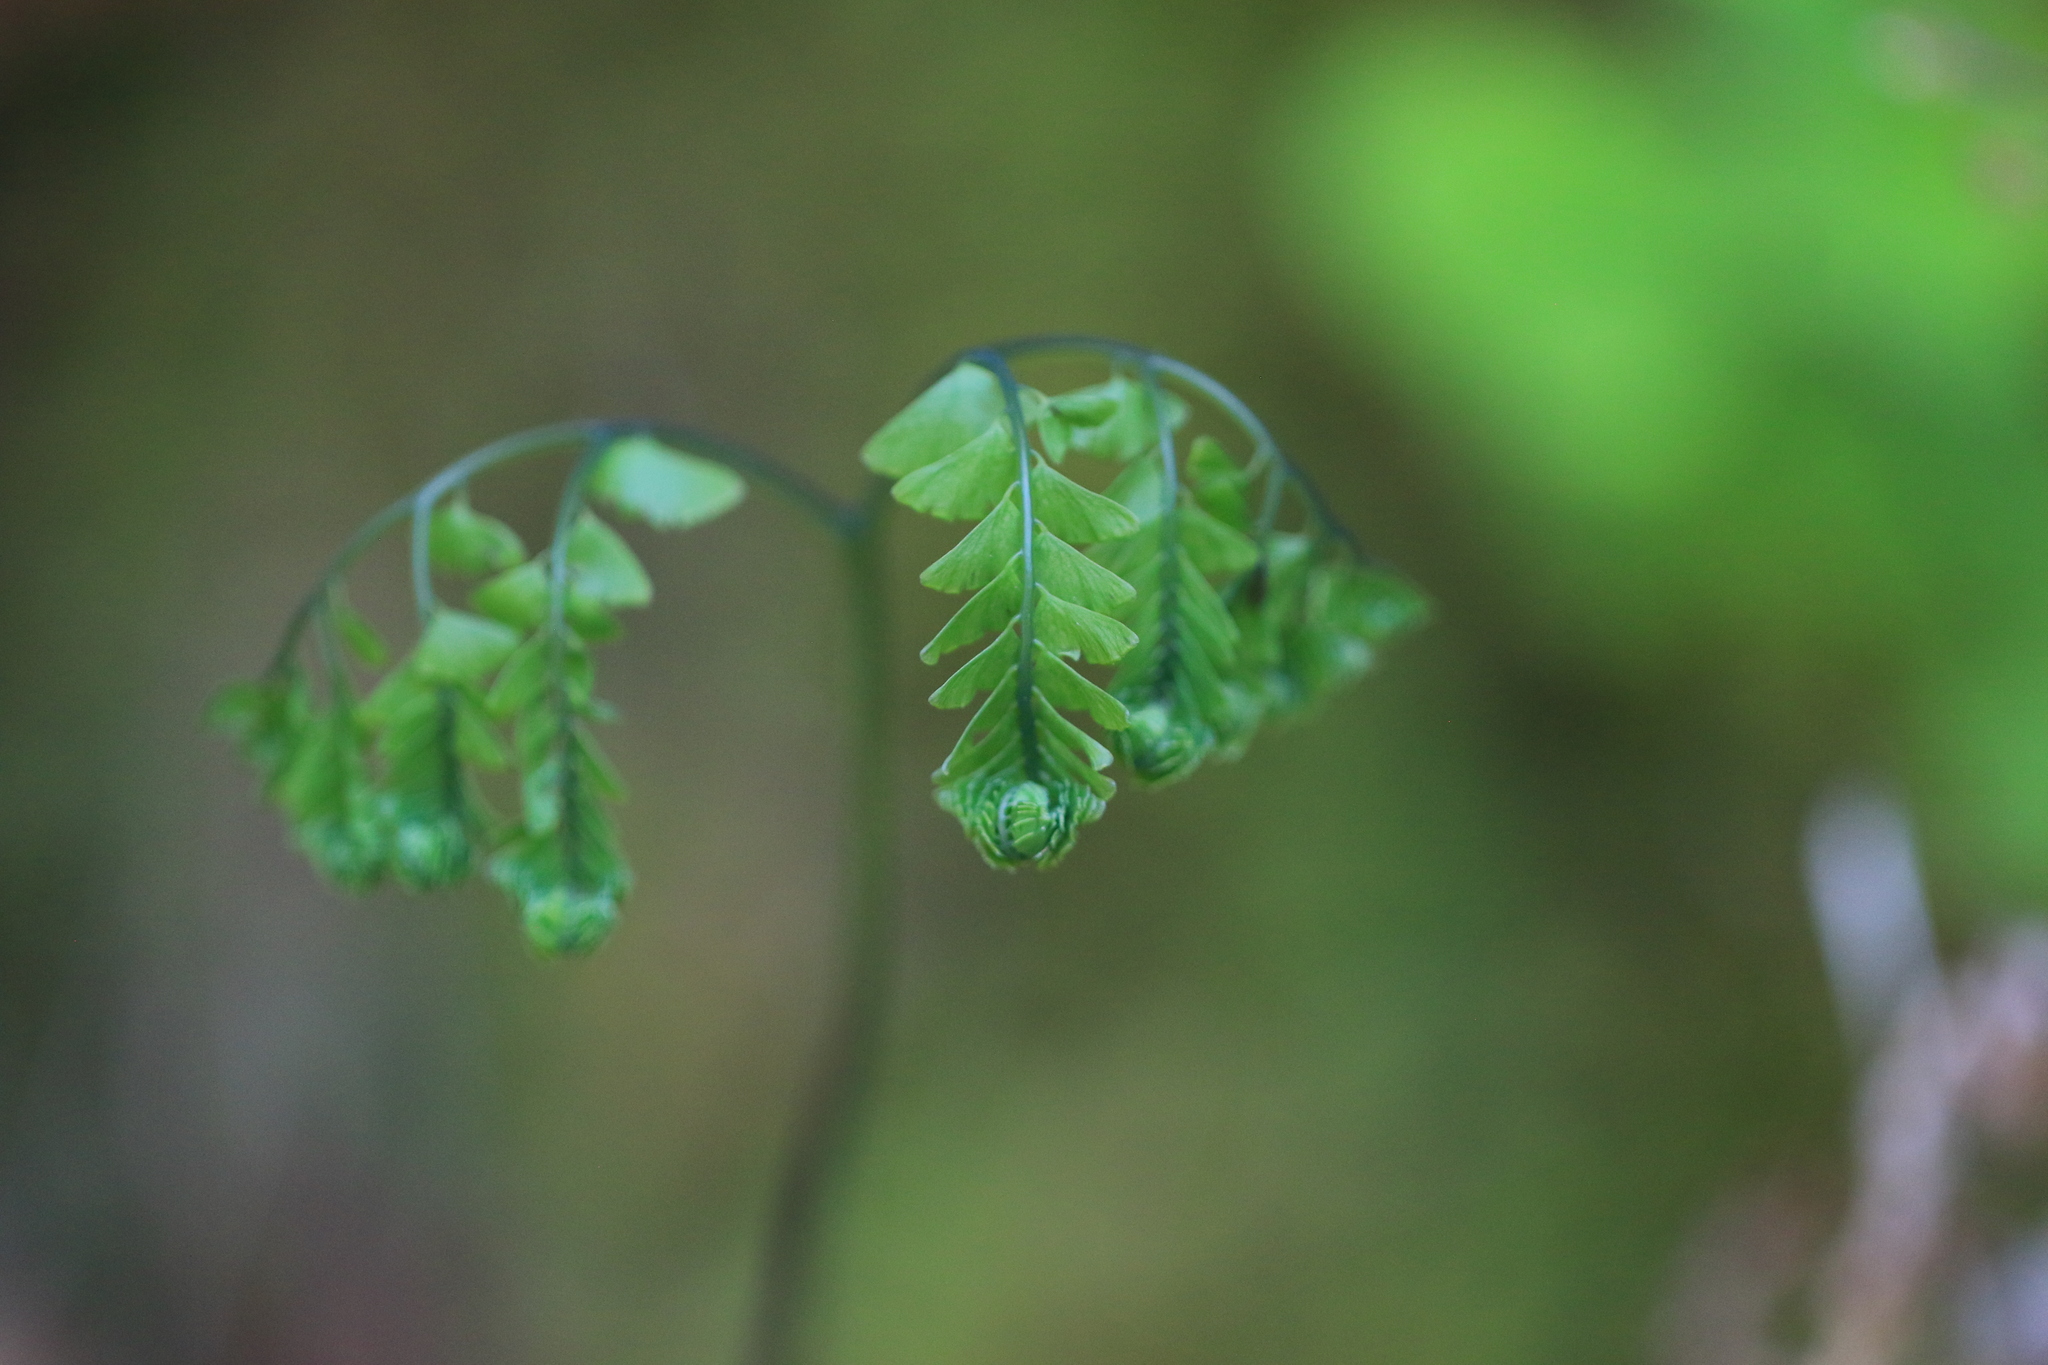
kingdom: Plantae
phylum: Tracheophyta
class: Polypodiopsida
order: Polypodiales
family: Pteridaceae
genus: Adiantum
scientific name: Adiantum aleuticum
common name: Aleutian maidenhair fern
